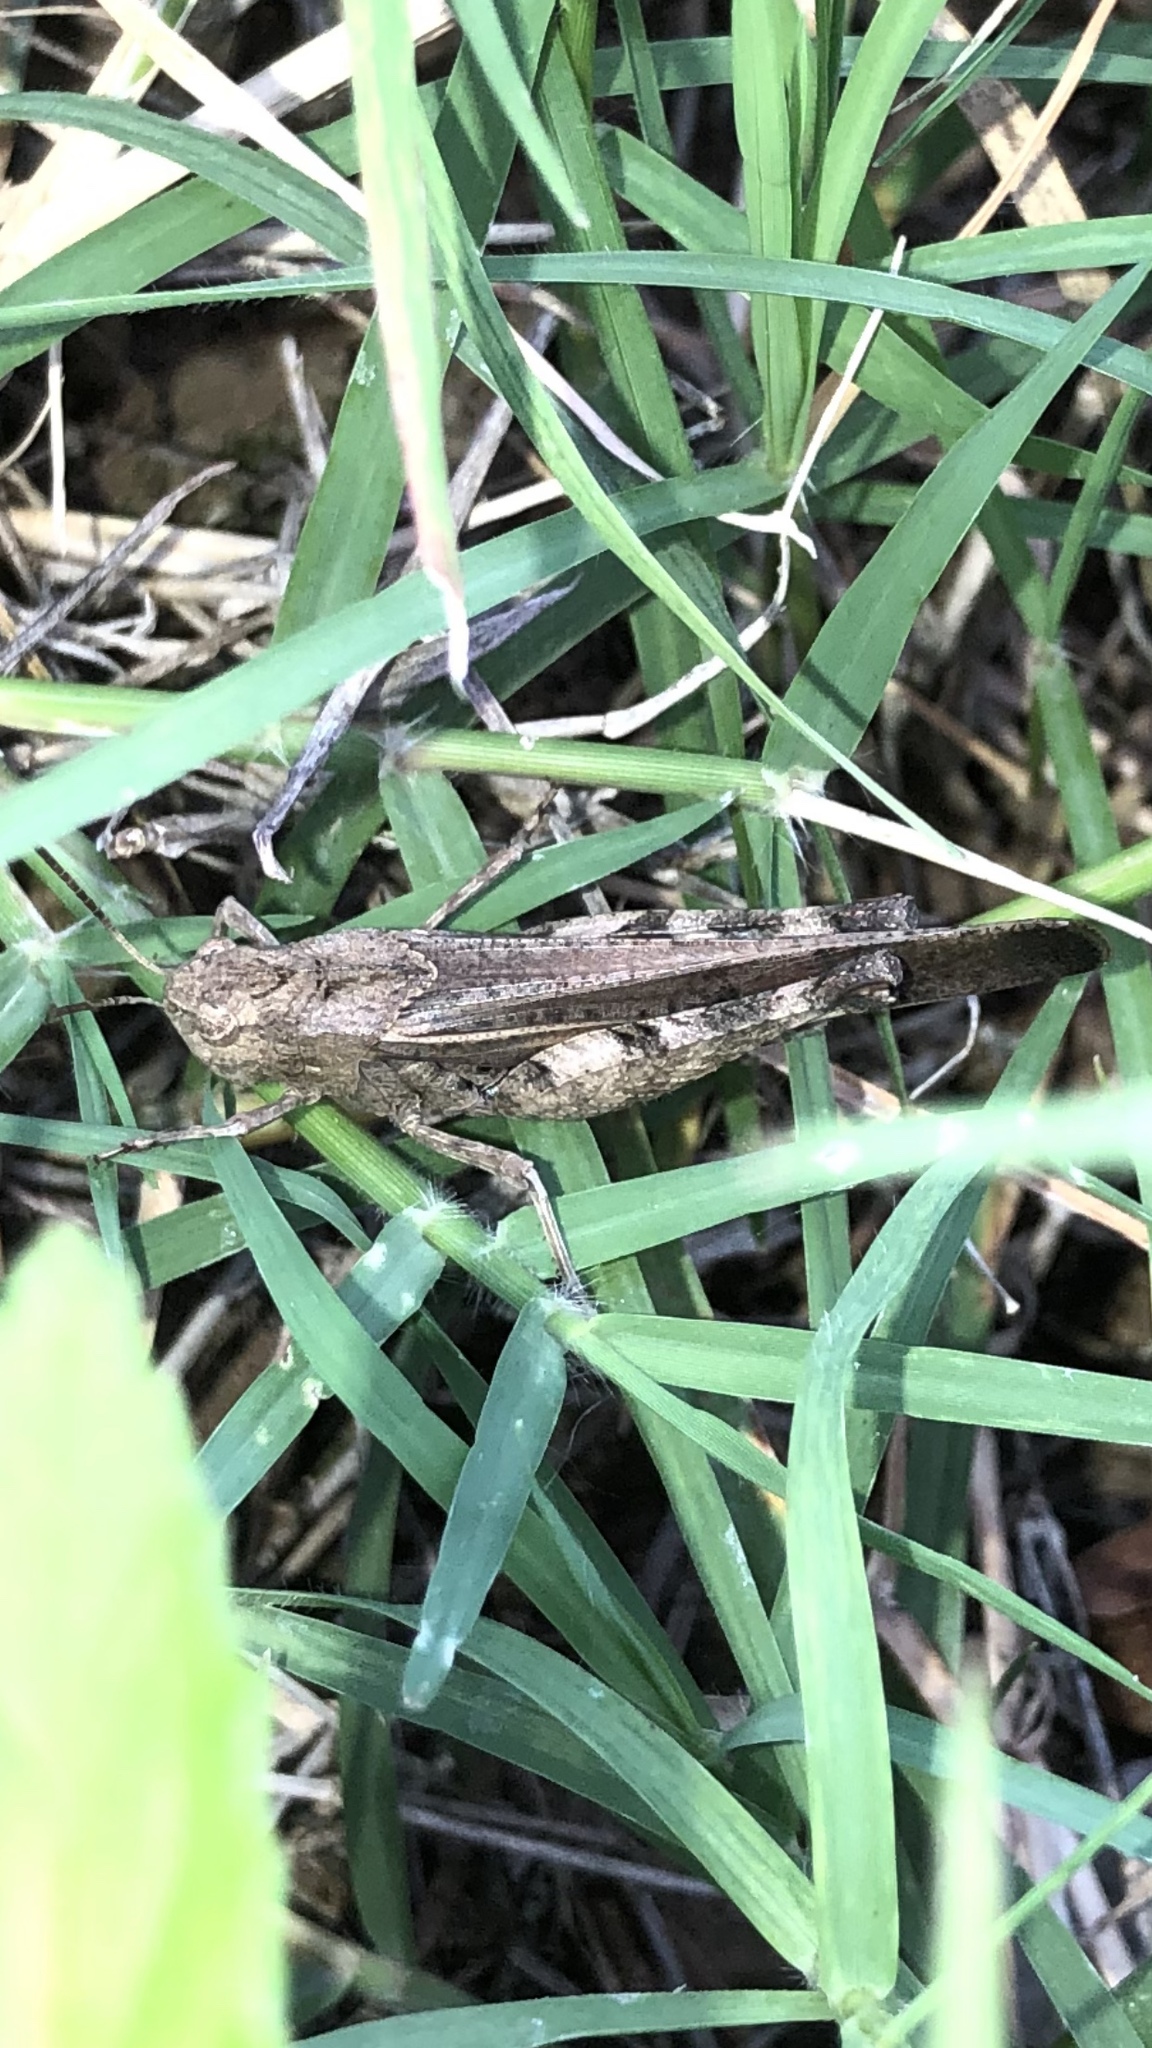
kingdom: Animalia
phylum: Arthropoda
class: Insecta
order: Orthoptera
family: Acrididae
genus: Chortophaga
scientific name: Chortophaga viridifasciata
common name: Green-striped grasshopper
